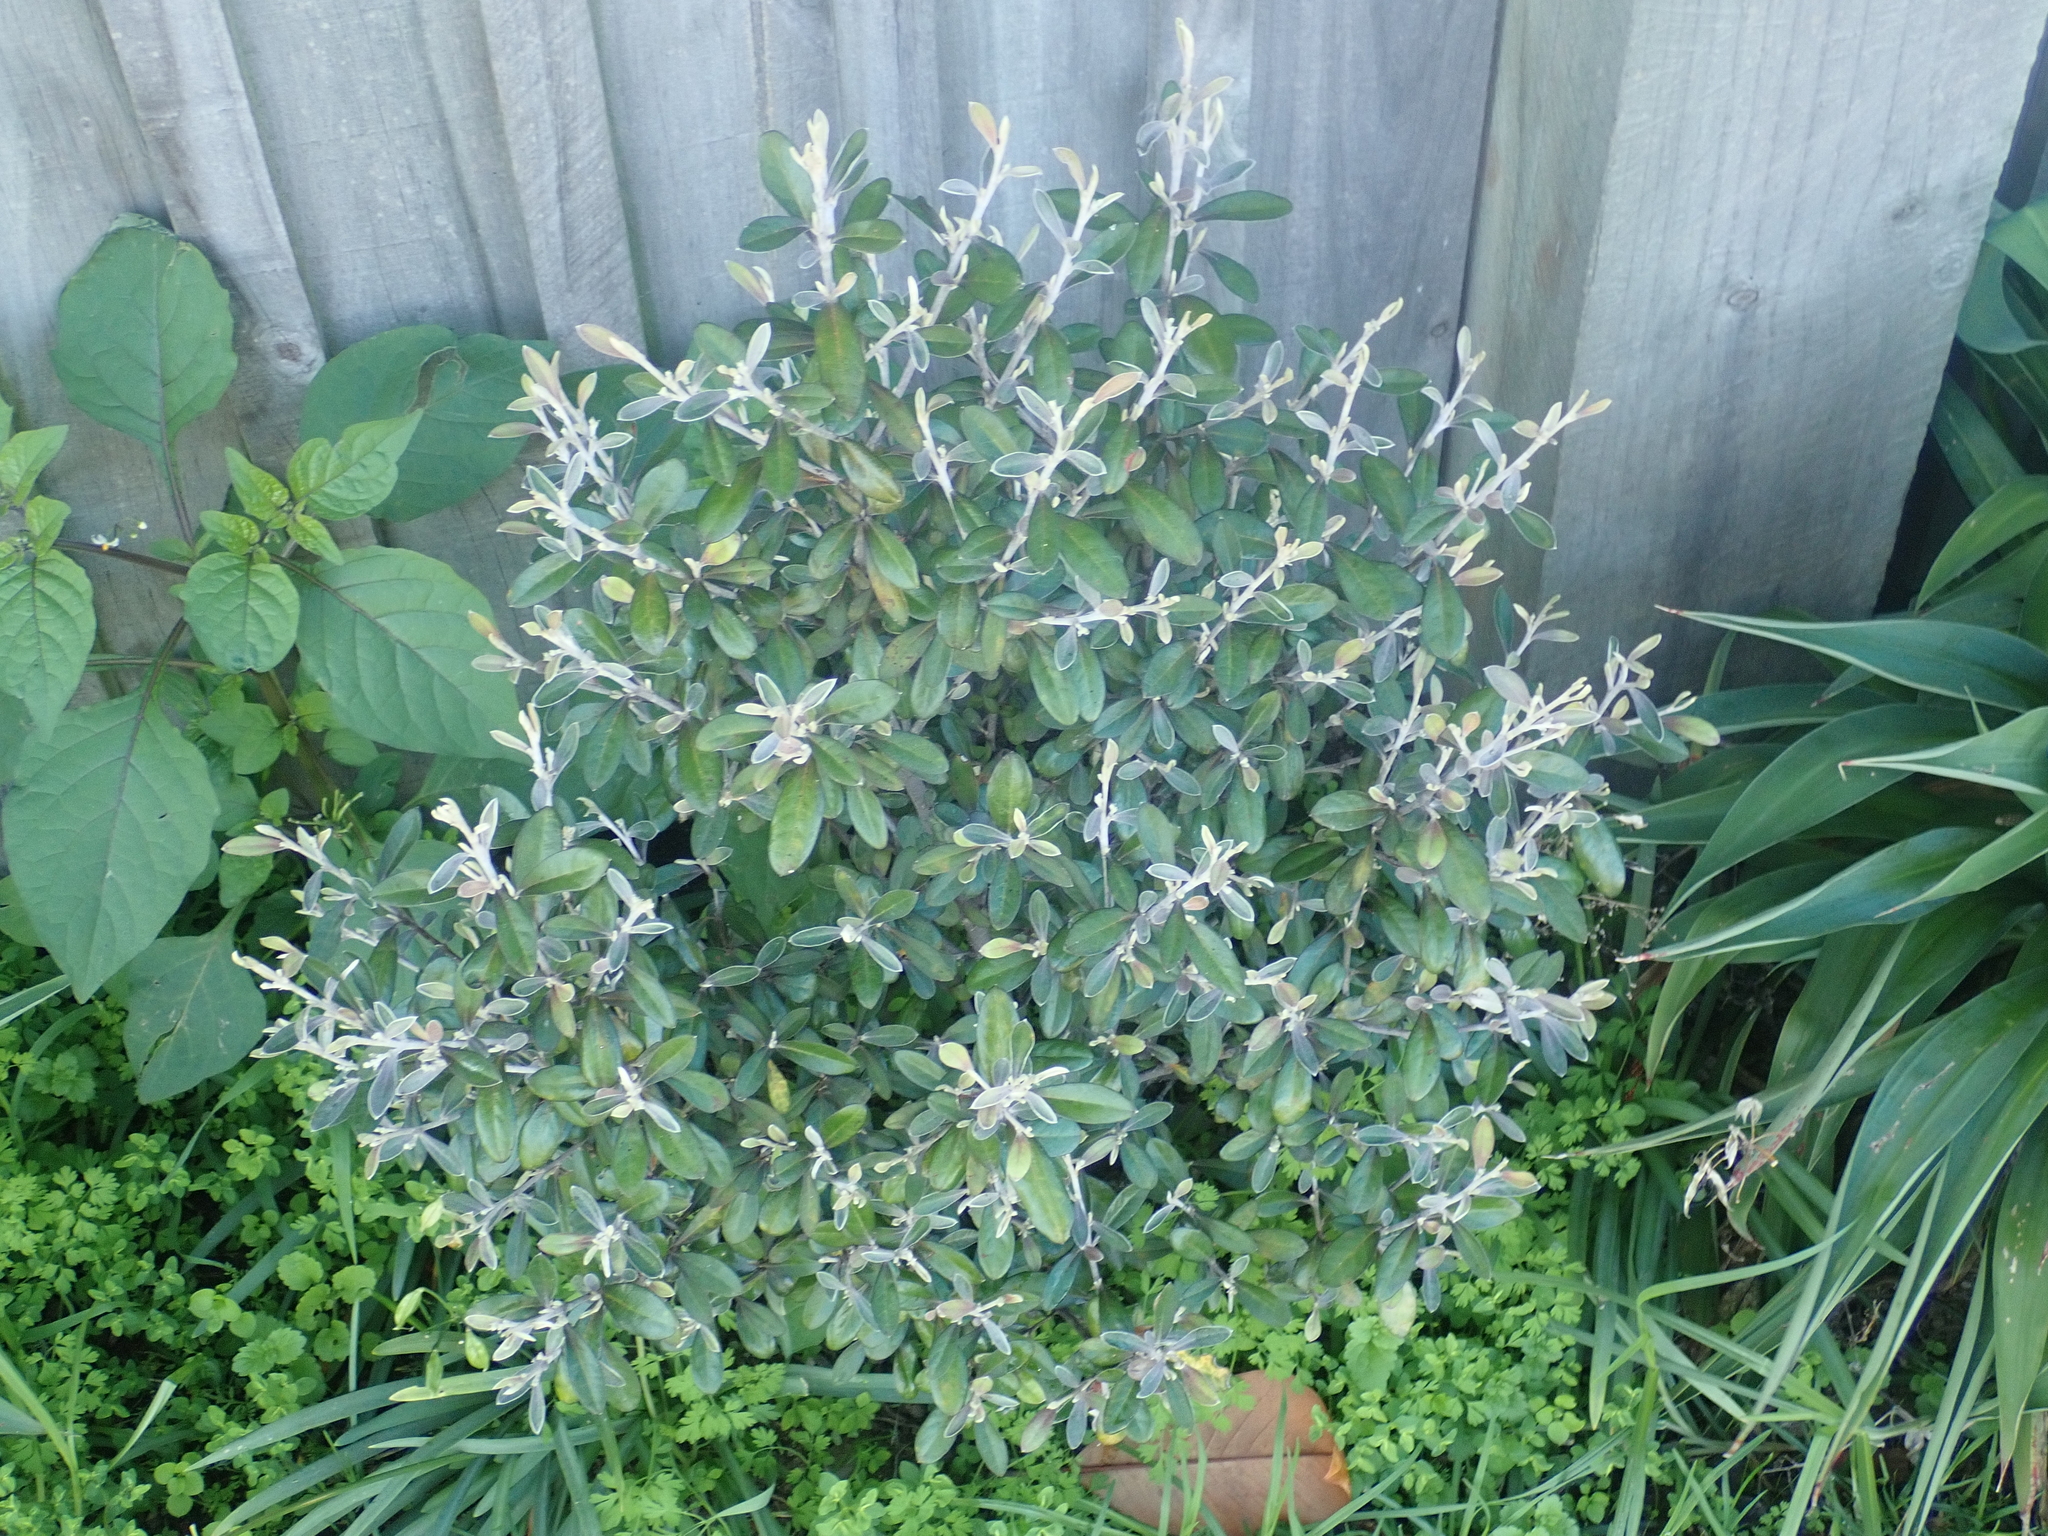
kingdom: Plantae
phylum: Tracheophyta
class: Magnoliopsida
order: Asterales
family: Argophyllaceae
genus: Corokia
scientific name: Corokia virgata
